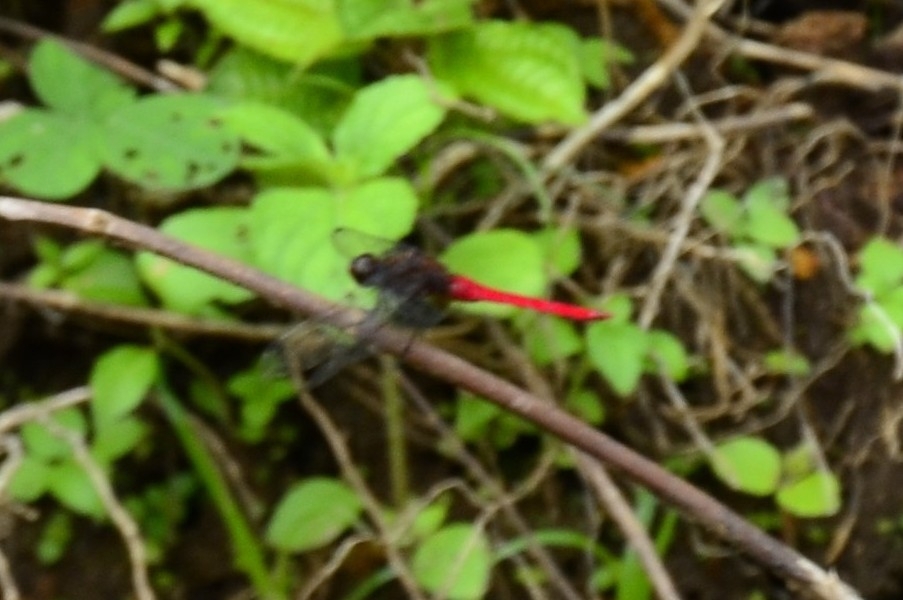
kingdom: Animalia
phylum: Arthropoda
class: Insecta
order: Odonata
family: Libellulidae
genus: Orthetrum
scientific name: Orthetrum chrysis
